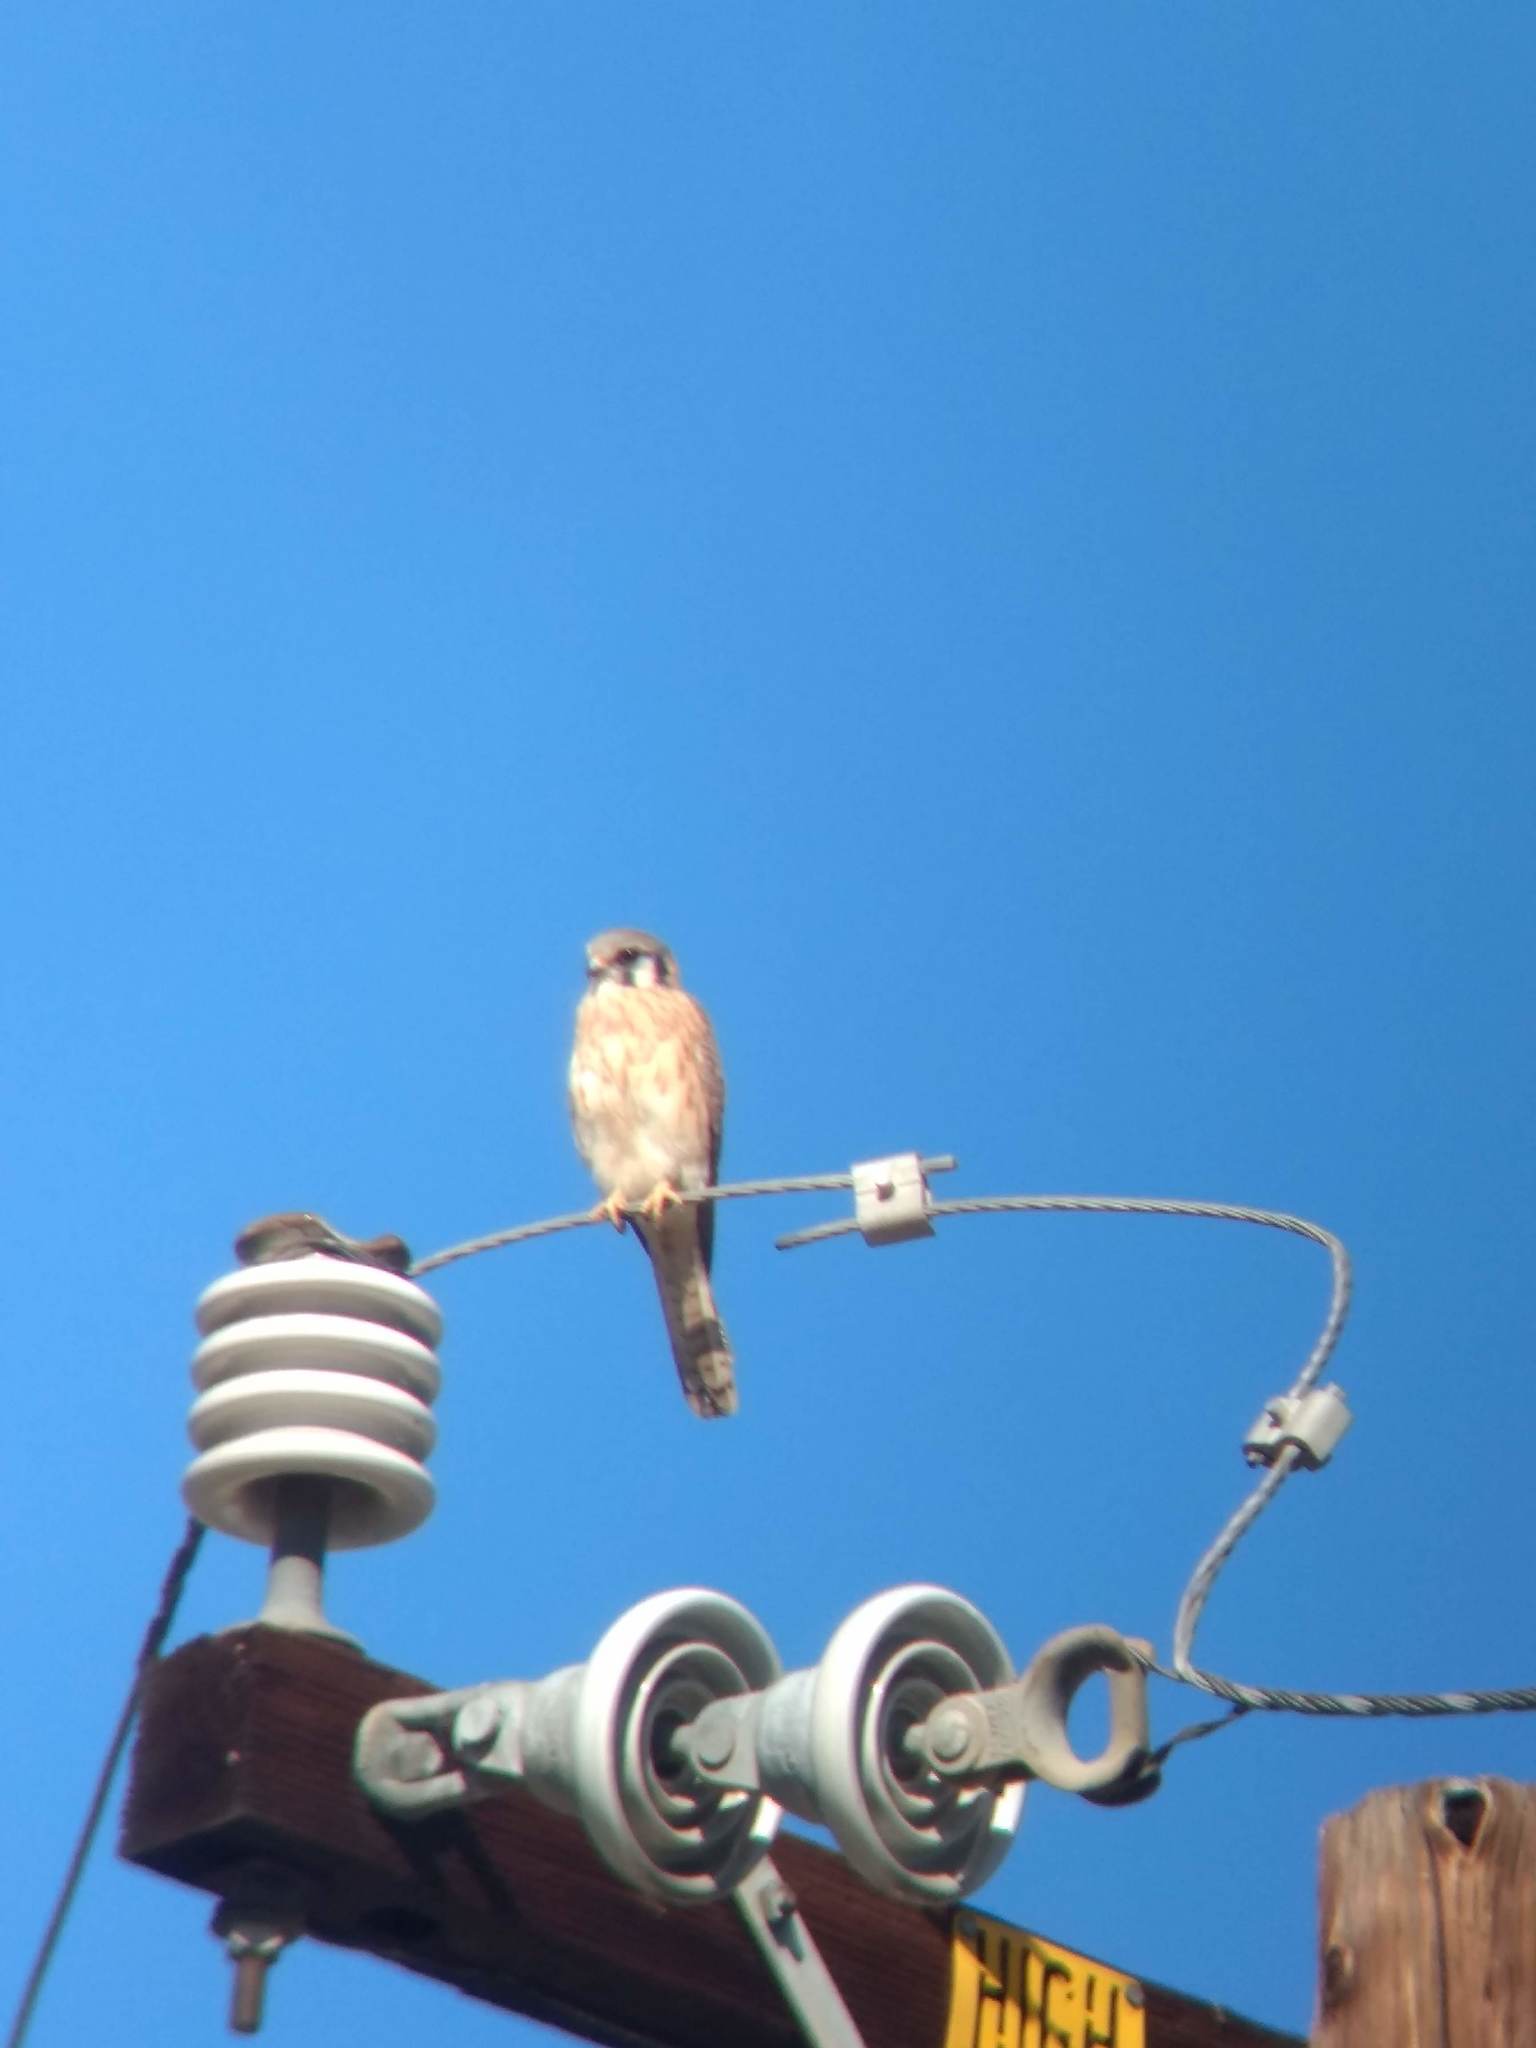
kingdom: Animalia
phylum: Chordata
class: Aves
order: Falconiformes
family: Falconidae
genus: Falco
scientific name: Falco sparverius
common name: American kestrel
